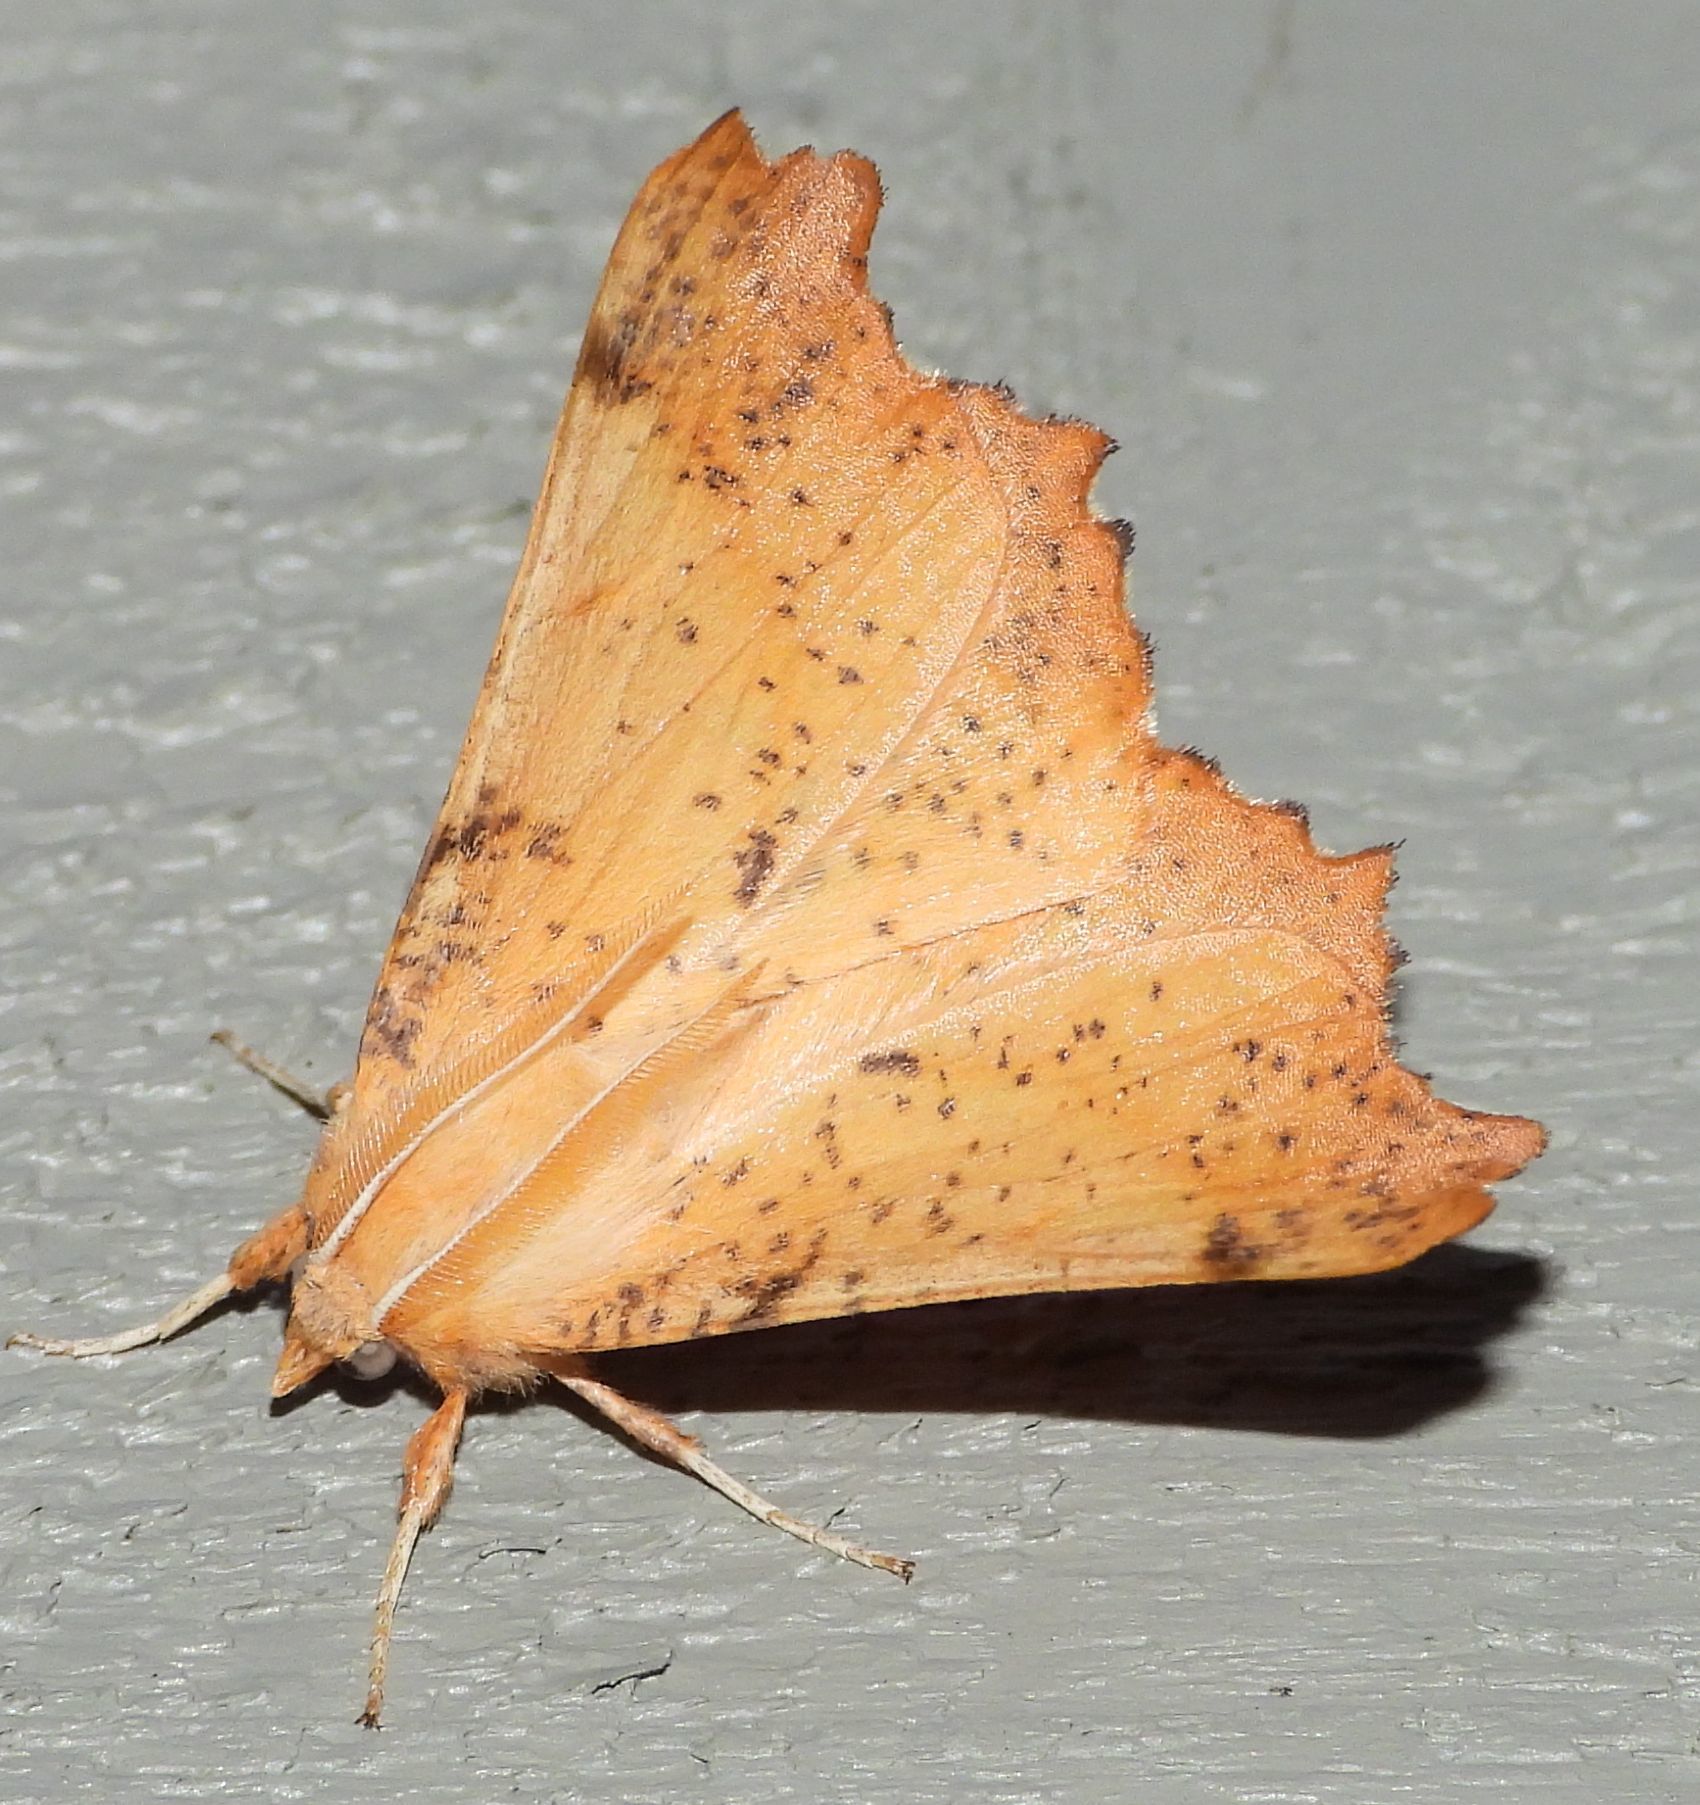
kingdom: Animalia
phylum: Arthropoda
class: Insecta
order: Lepidoptera
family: Geometridae
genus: Ennomos
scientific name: Ennomos magnaria
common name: Maple spanworm
